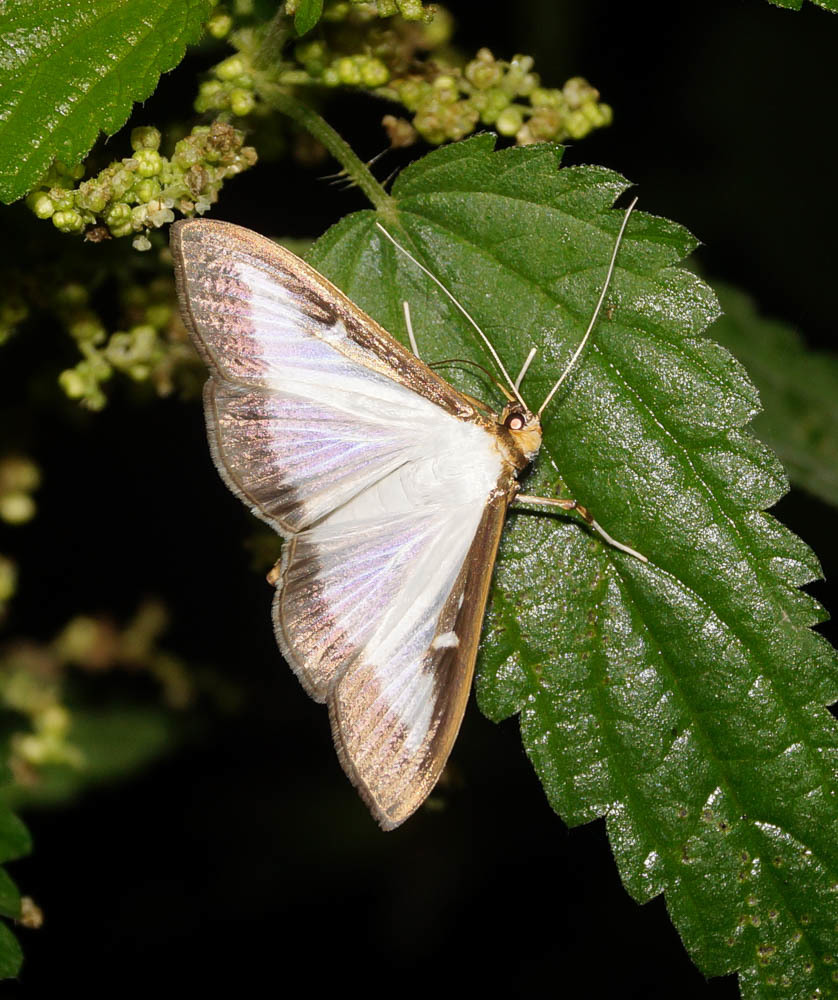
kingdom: Animalia
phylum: Arthropoda
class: Insecta
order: Lepidoptera
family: Crambidae
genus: Cydalima
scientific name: Cydalima perspectalis
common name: Box tree moth
